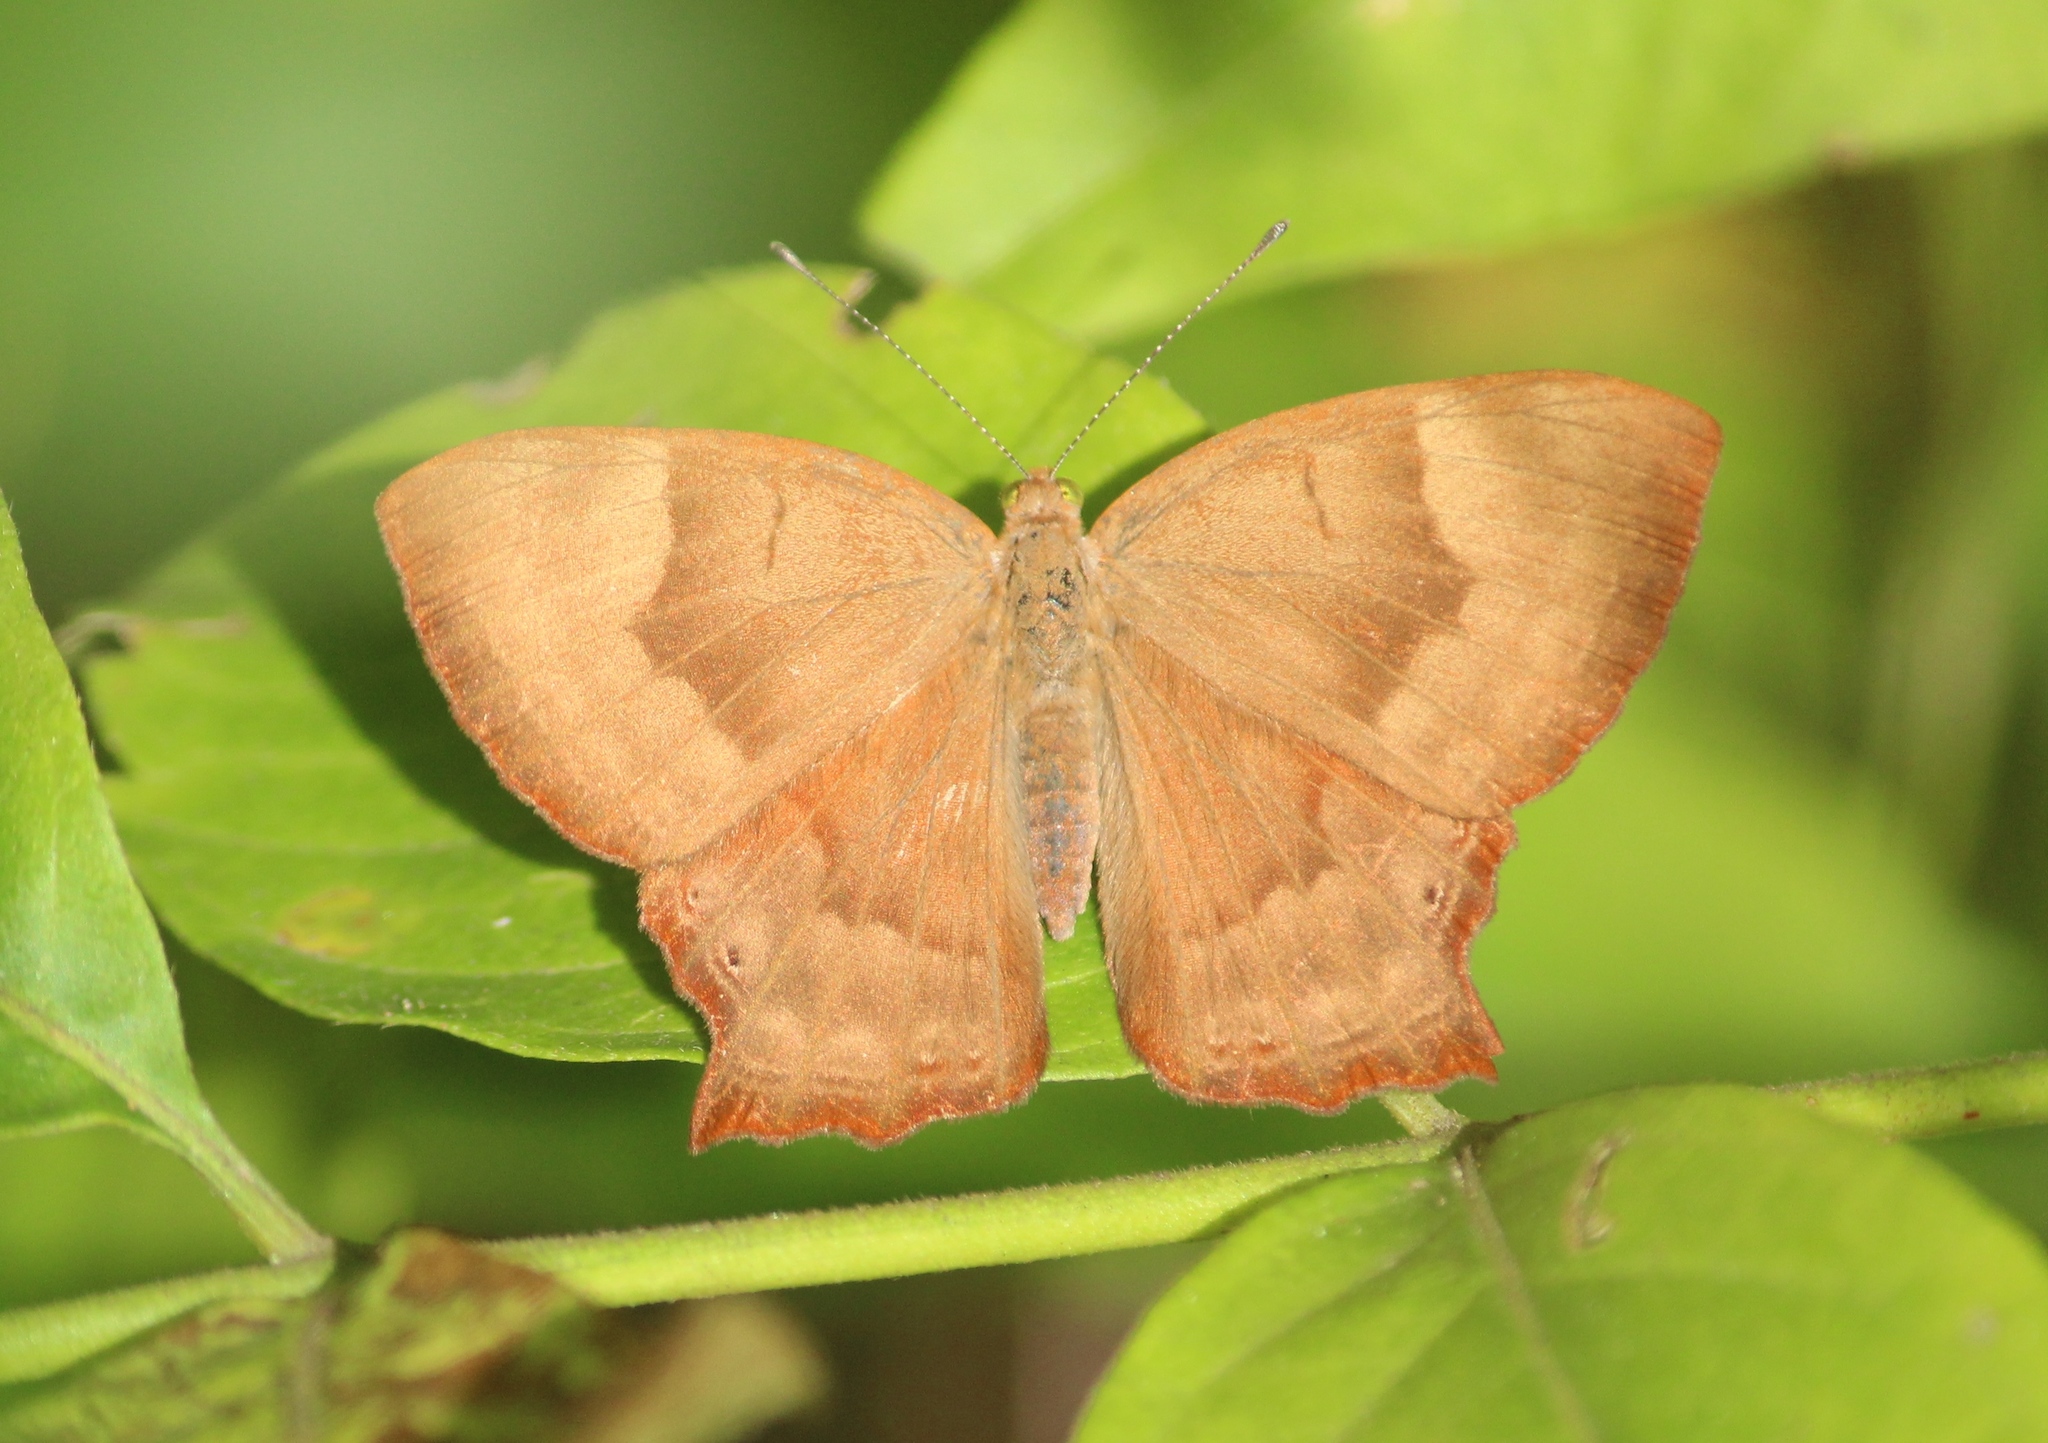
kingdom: Animalia
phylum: Arthropoda
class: Insecta
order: Lepidoptera
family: Lycaenidae
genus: Abisara
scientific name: Abisara bifasciata
